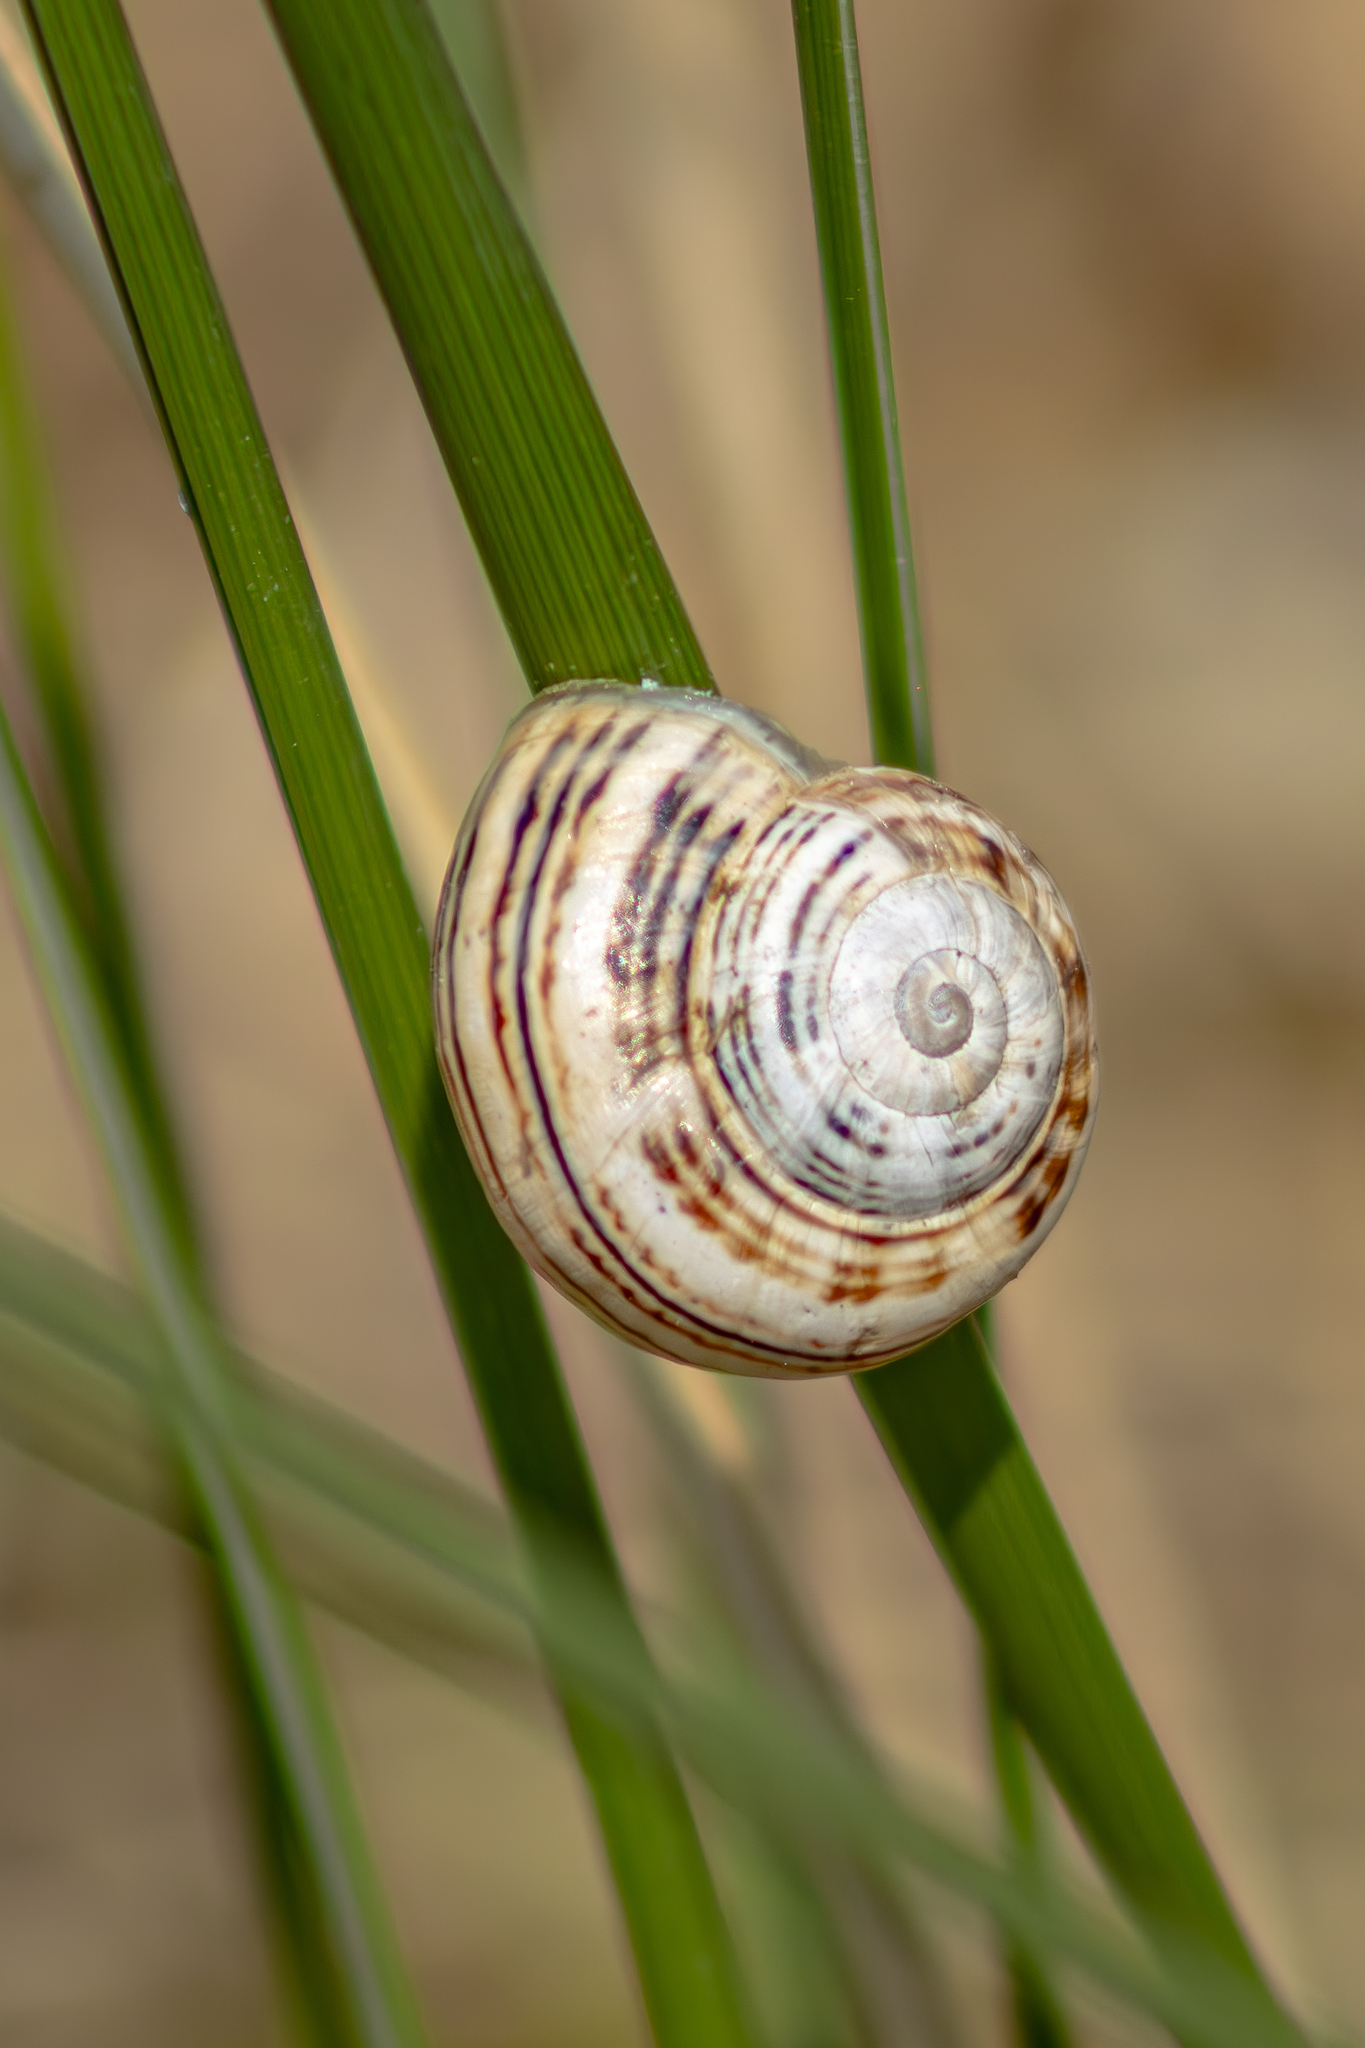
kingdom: Animalia
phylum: Mollusca
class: Gastropoda
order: Stylommatophora
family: Helicidae
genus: Theba
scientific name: Theba pisana
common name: White snail
